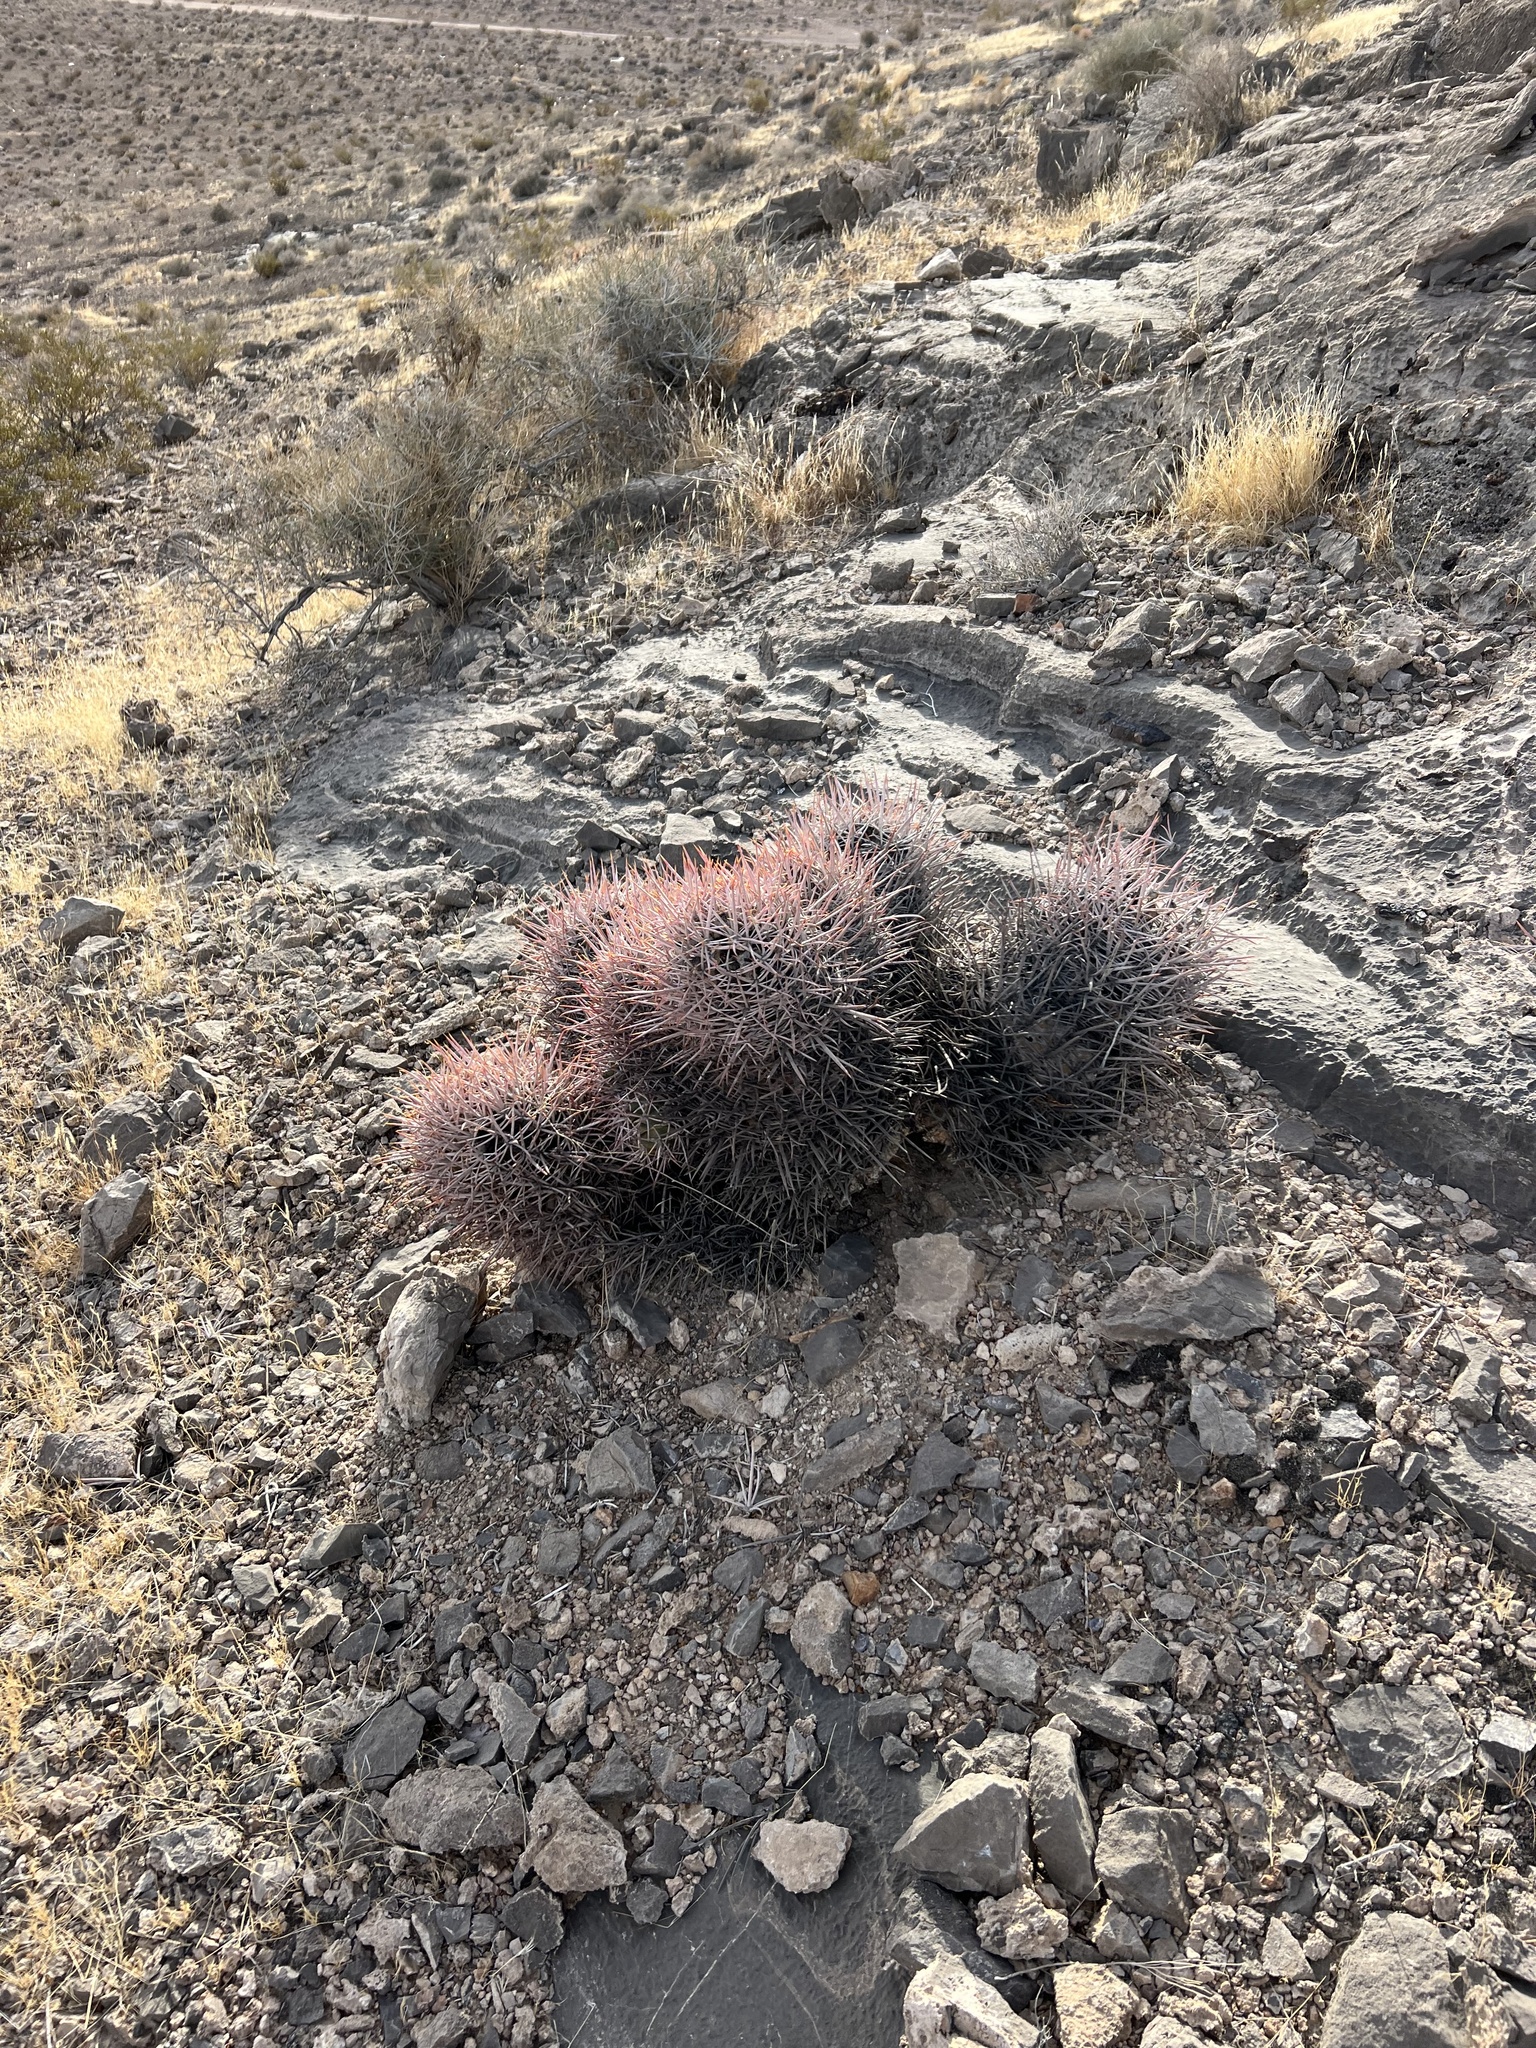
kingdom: Plantae
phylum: Tracheophyta
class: Magnoliopsida
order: Caryophyllales
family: Cactaceae
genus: Echinocactus
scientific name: Echinocactus polycephalus
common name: Cottontop cactus
